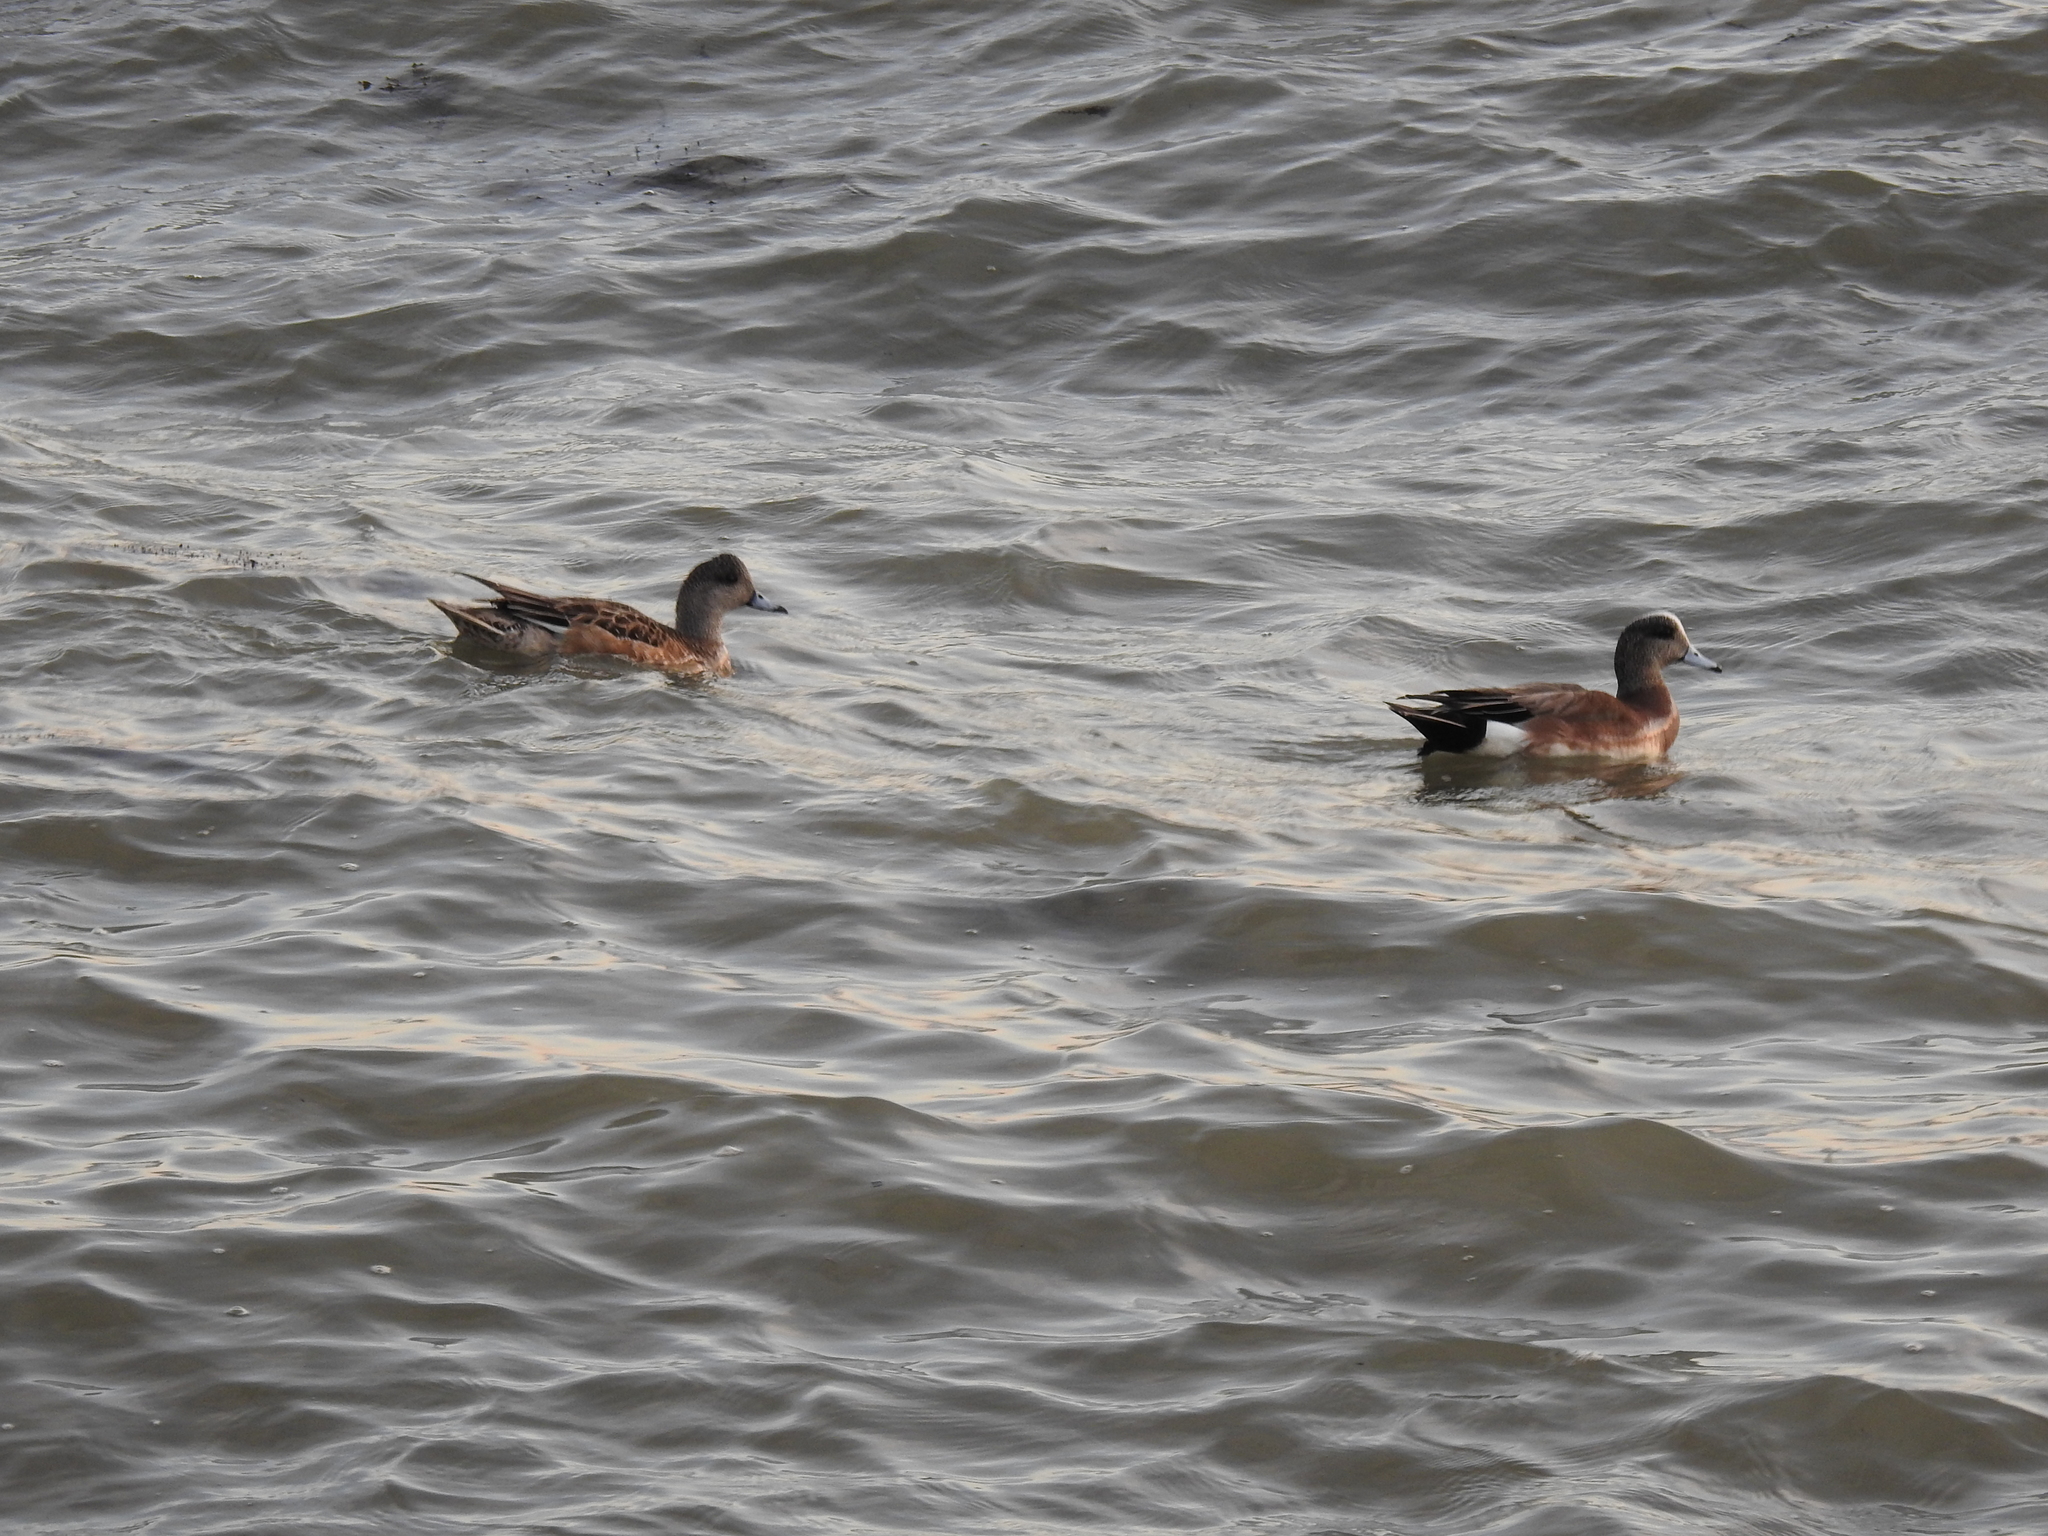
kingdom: Animalia
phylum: Chordata
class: Aves
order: Anseriformes
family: Anatidae
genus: Mareca
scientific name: Mareca americana
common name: American wigeon
